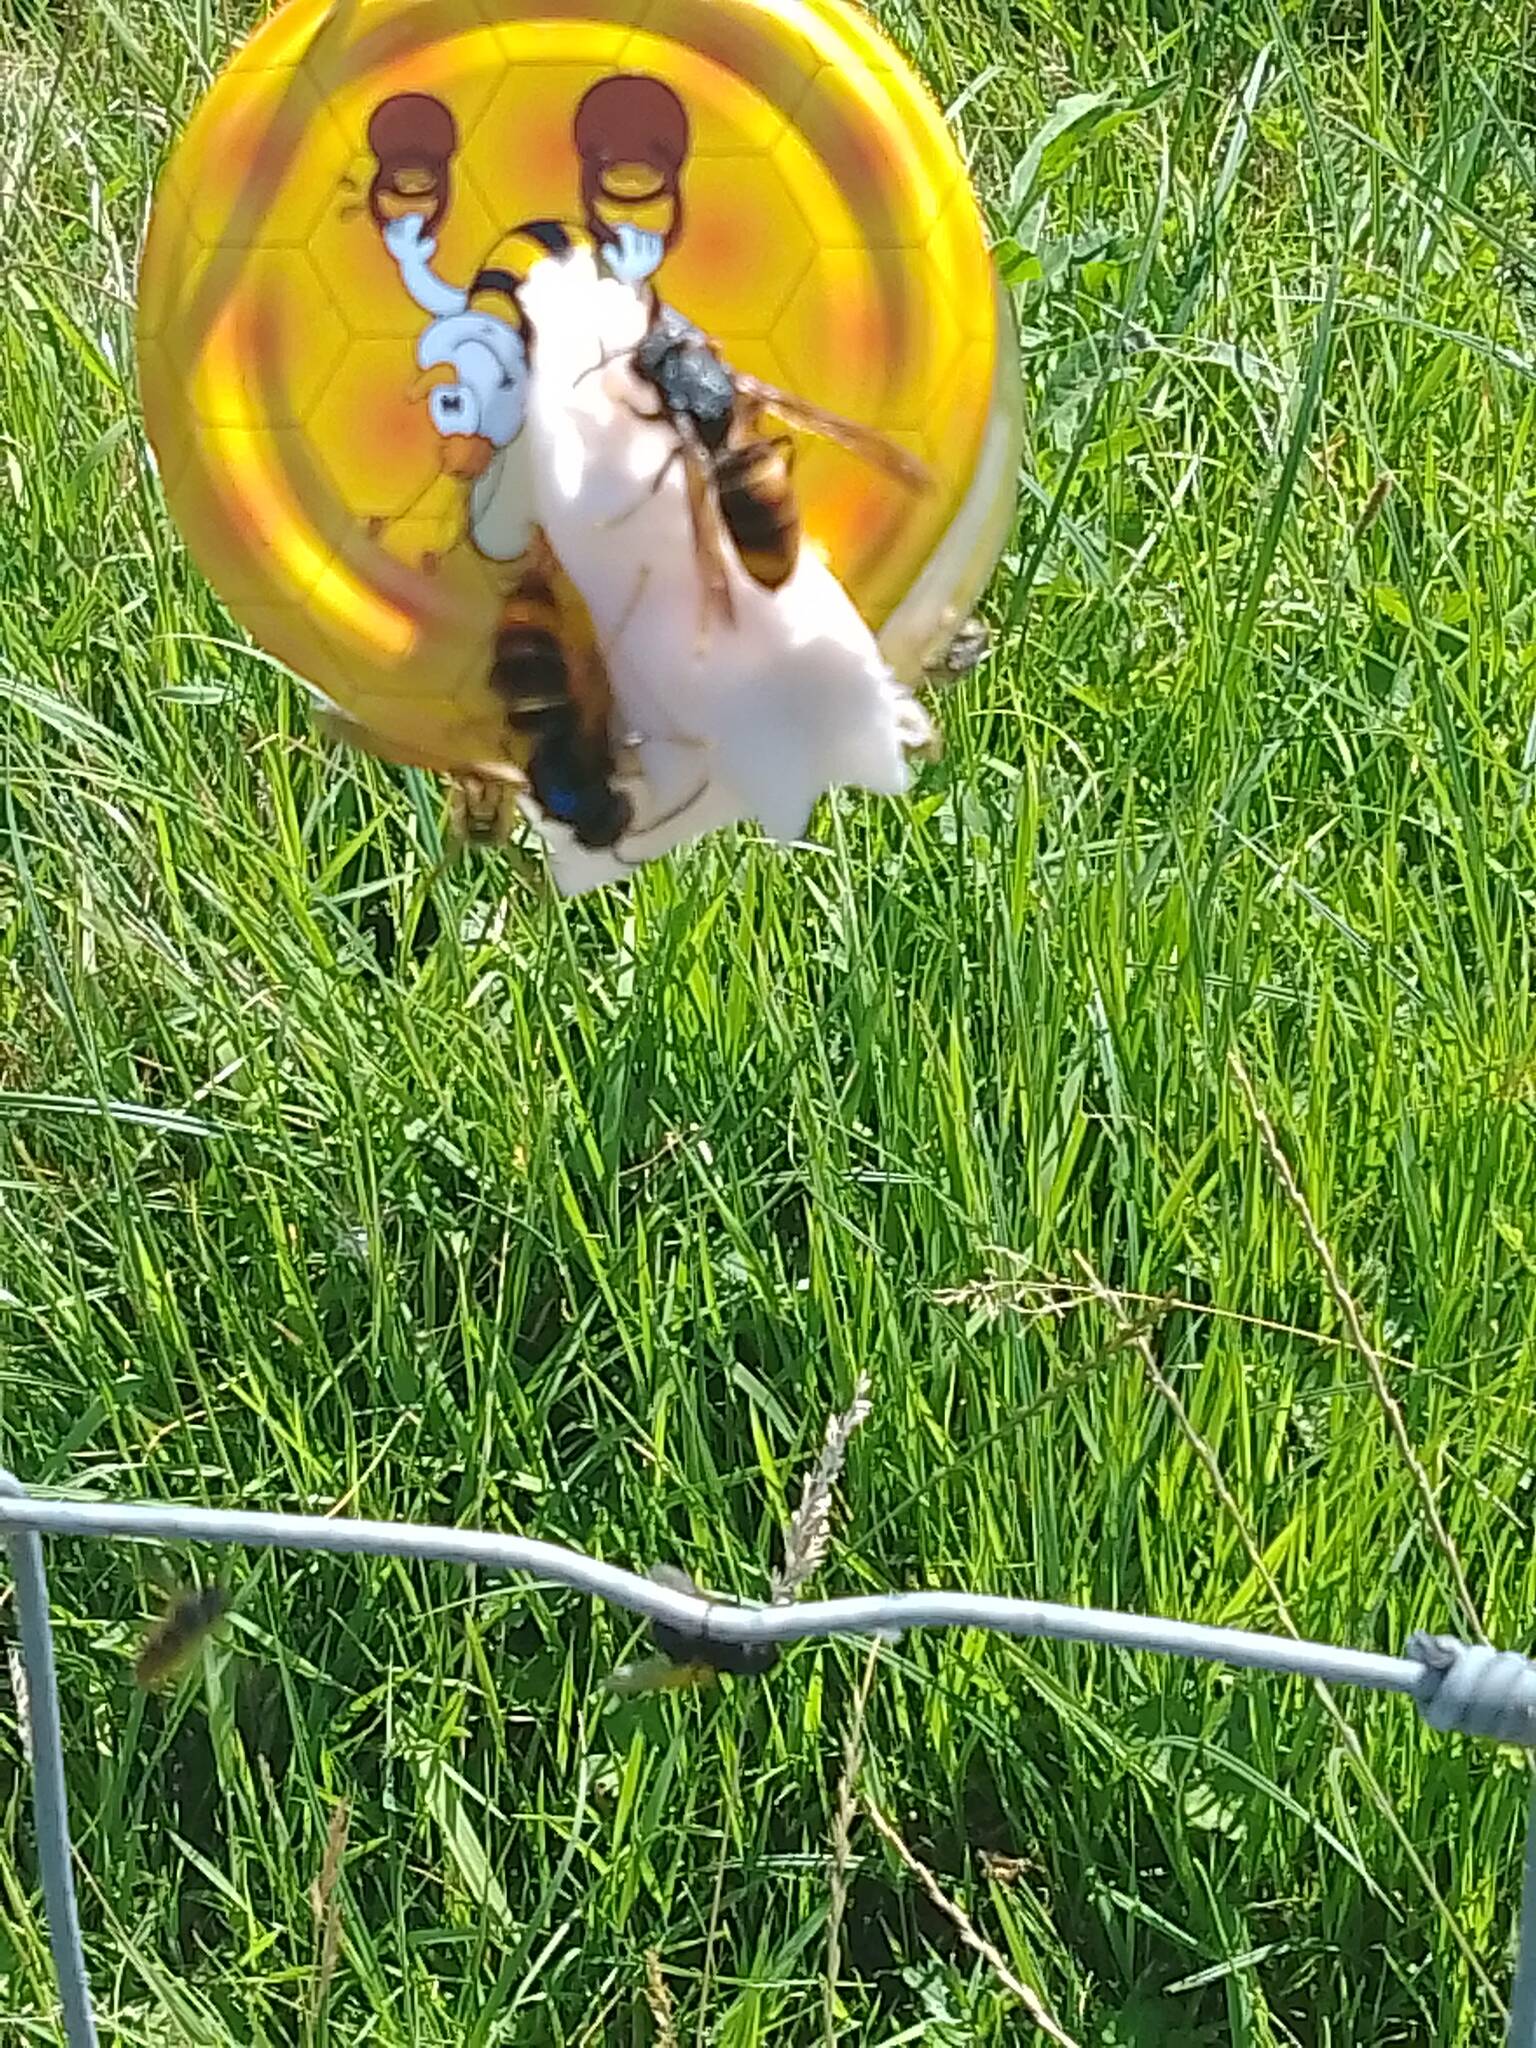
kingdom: Animalia
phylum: Arthropoda
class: Insecta
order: Hymenoptera
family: Vespidae
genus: Vespa
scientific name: Vespa velutina
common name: Asian hornet
